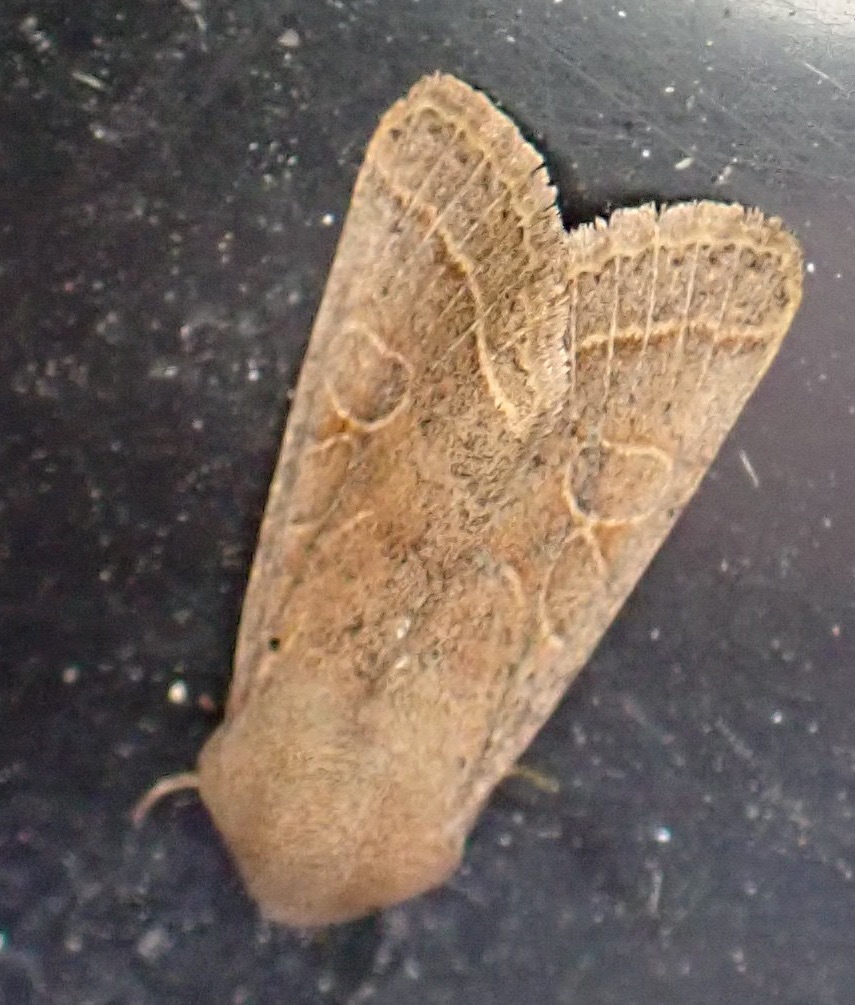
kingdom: Animalia
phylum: Arthropoda
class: Insecta
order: Lepidoptera
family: Noctuidae
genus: Orthosia
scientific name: Orthosia cerasi
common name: Common quaker
